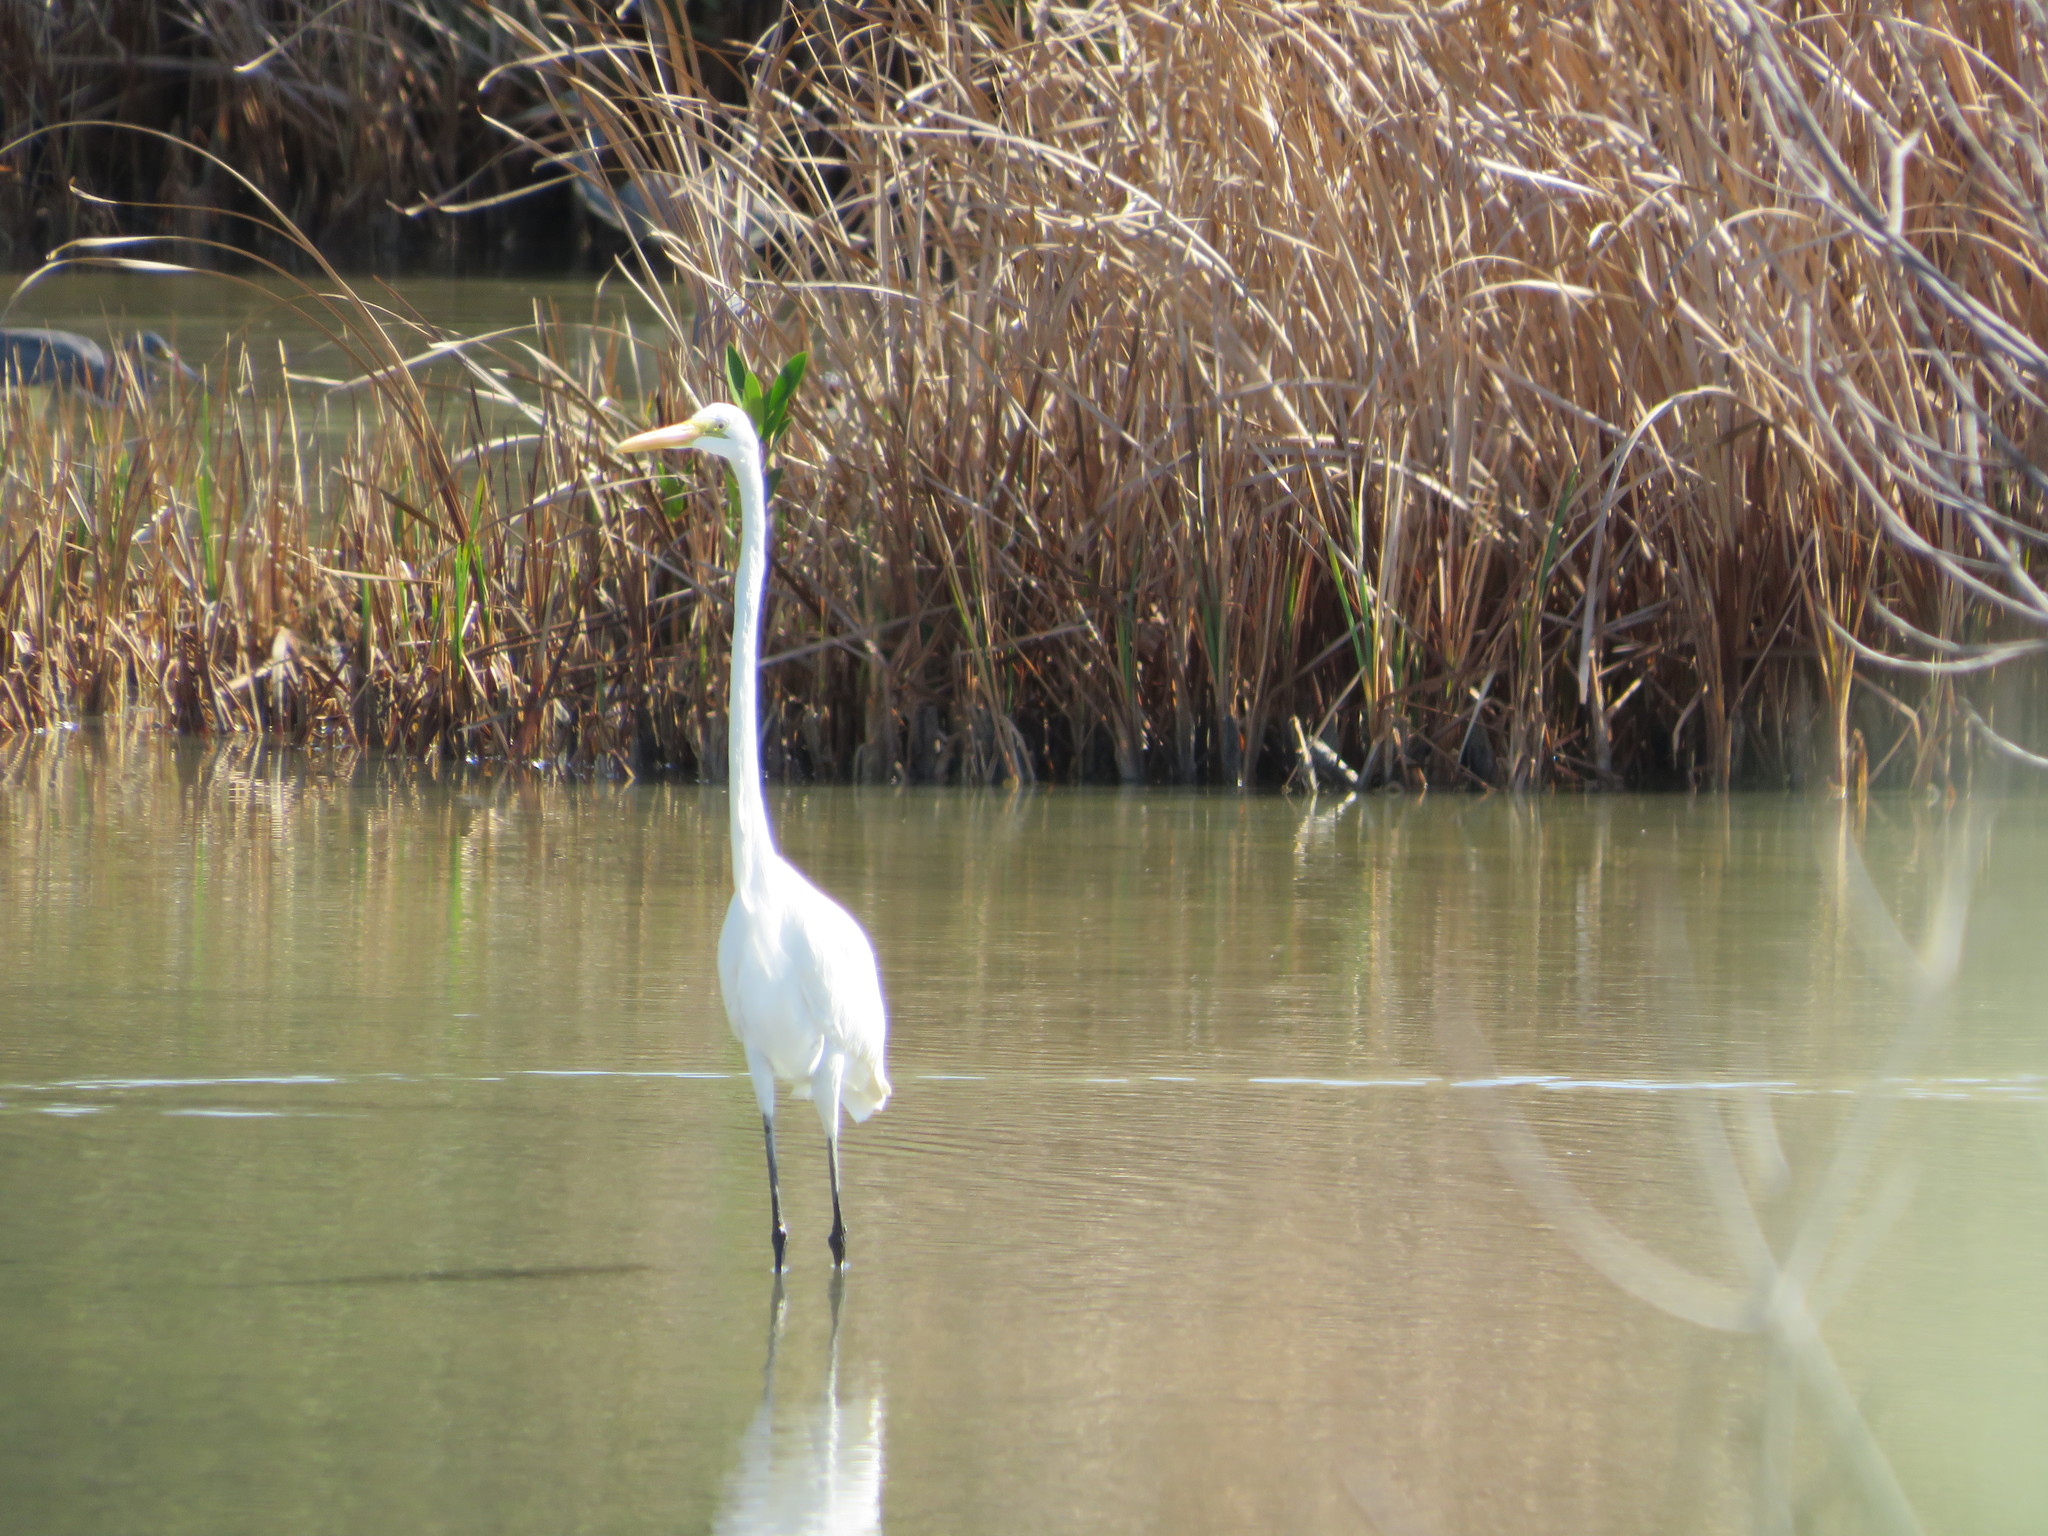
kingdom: Animalia
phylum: Chordata
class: Aves
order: Pelecaniformes
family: Ardeidae
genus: Ardea
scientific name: Ardea alba
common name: Great egret
